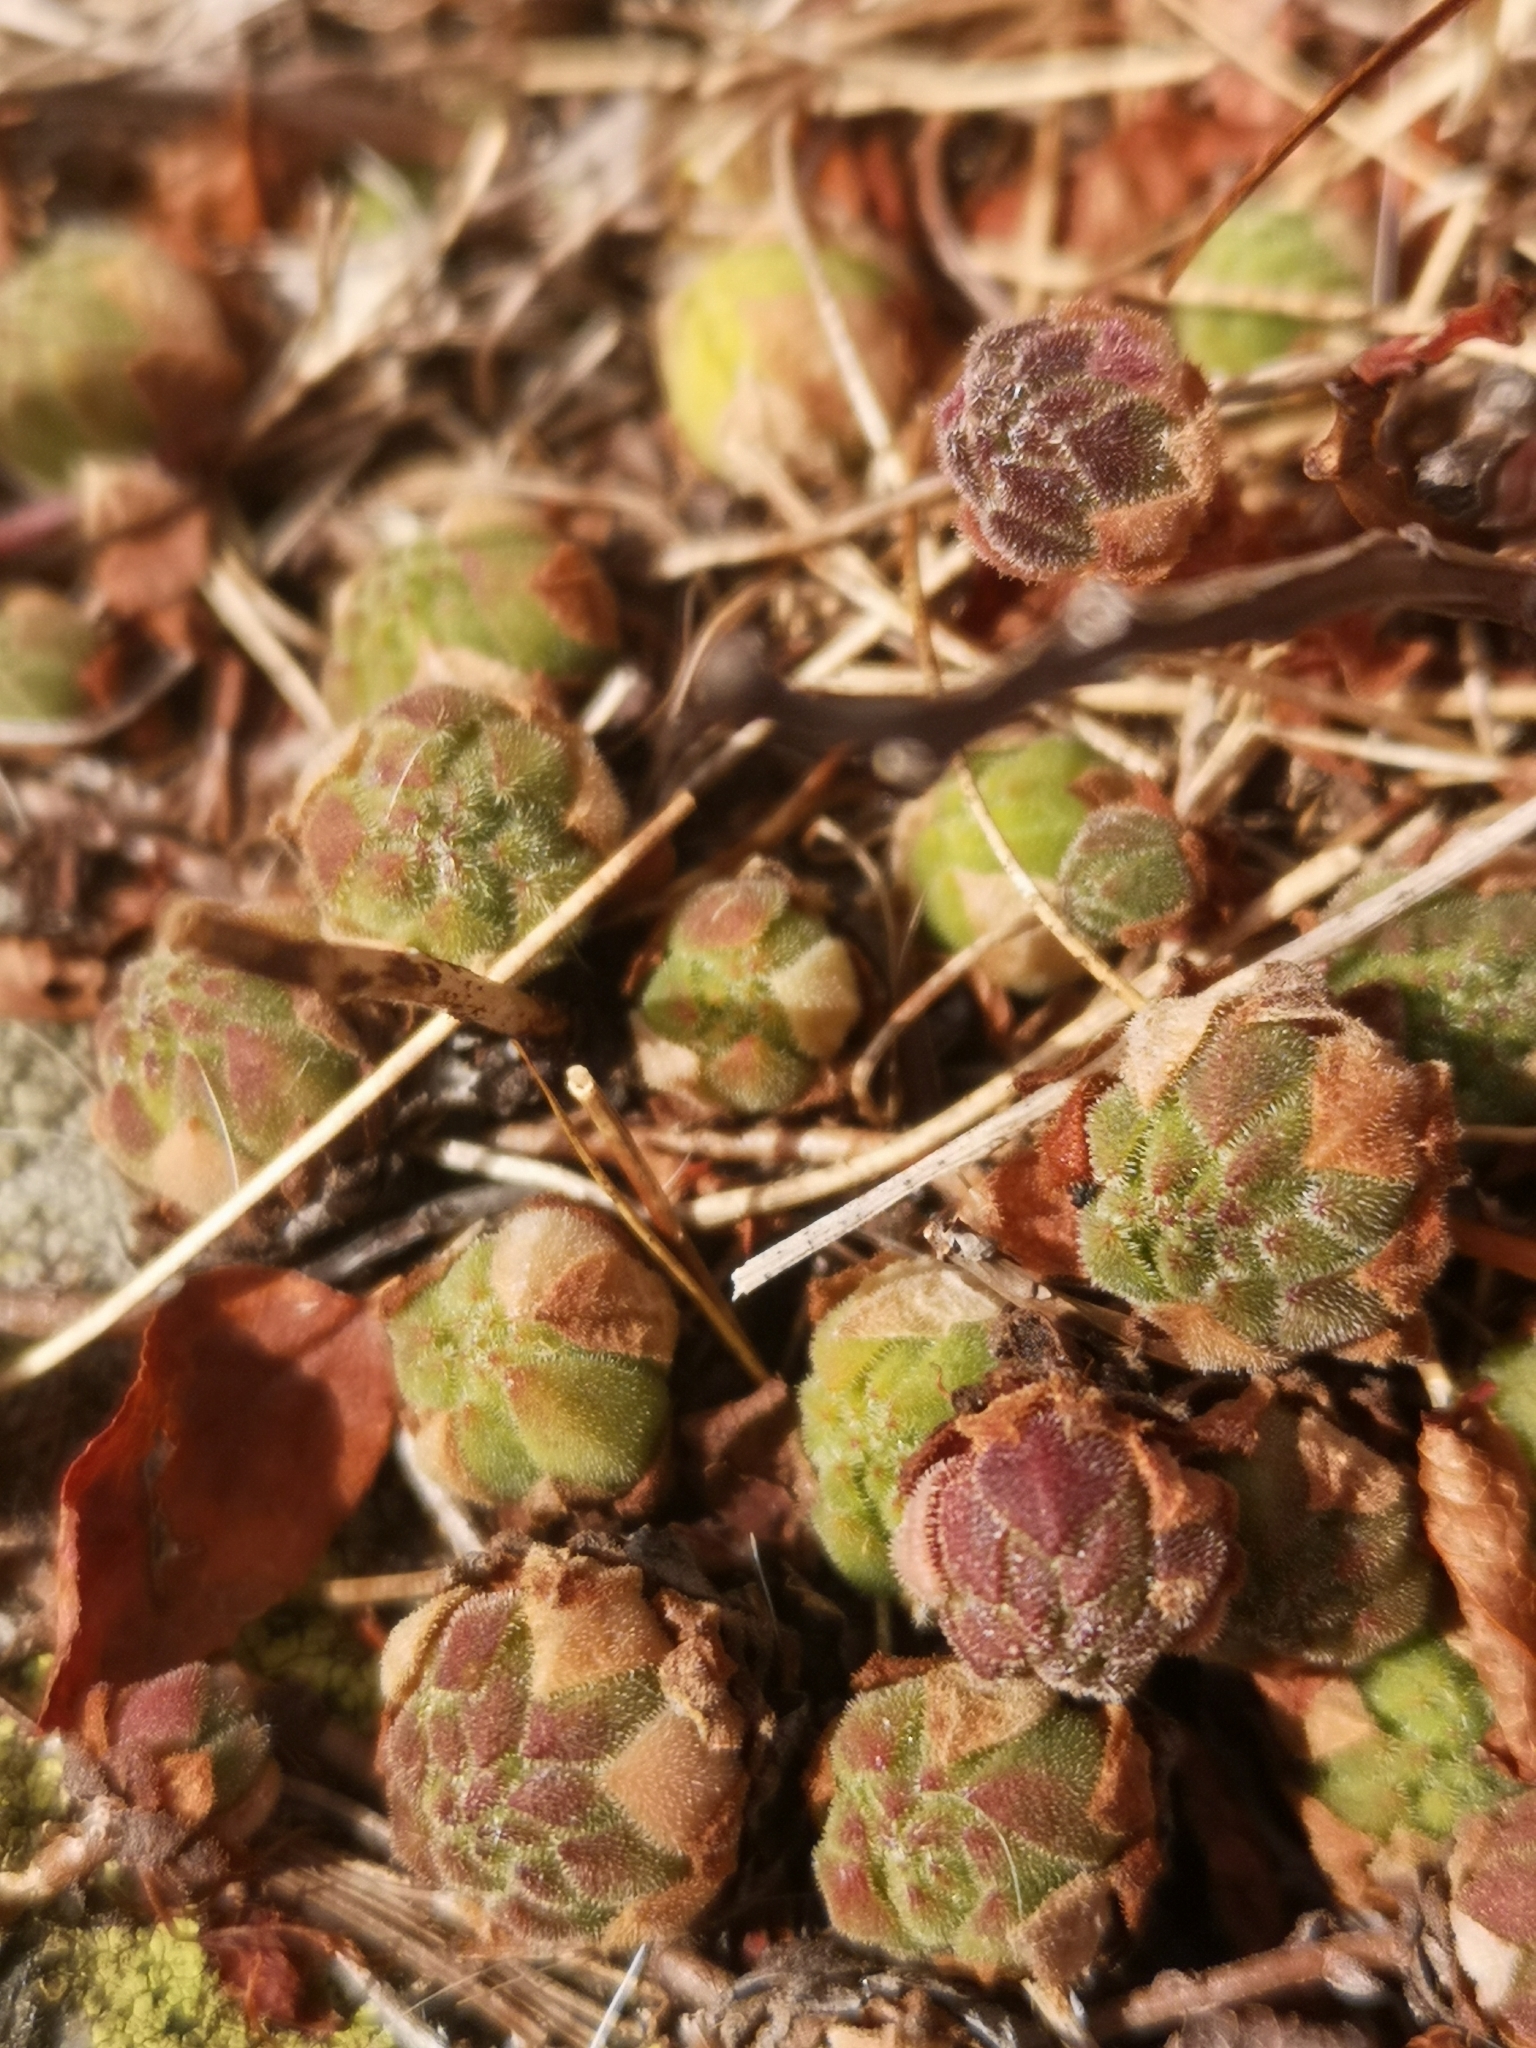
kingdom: Plantae
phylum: Tracheophyta
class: Magnoliopsida
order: Saxifragales
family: Crassulaceae
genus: Sempervivum
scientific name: Sempervivum montanum
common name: Mountain house-leek
